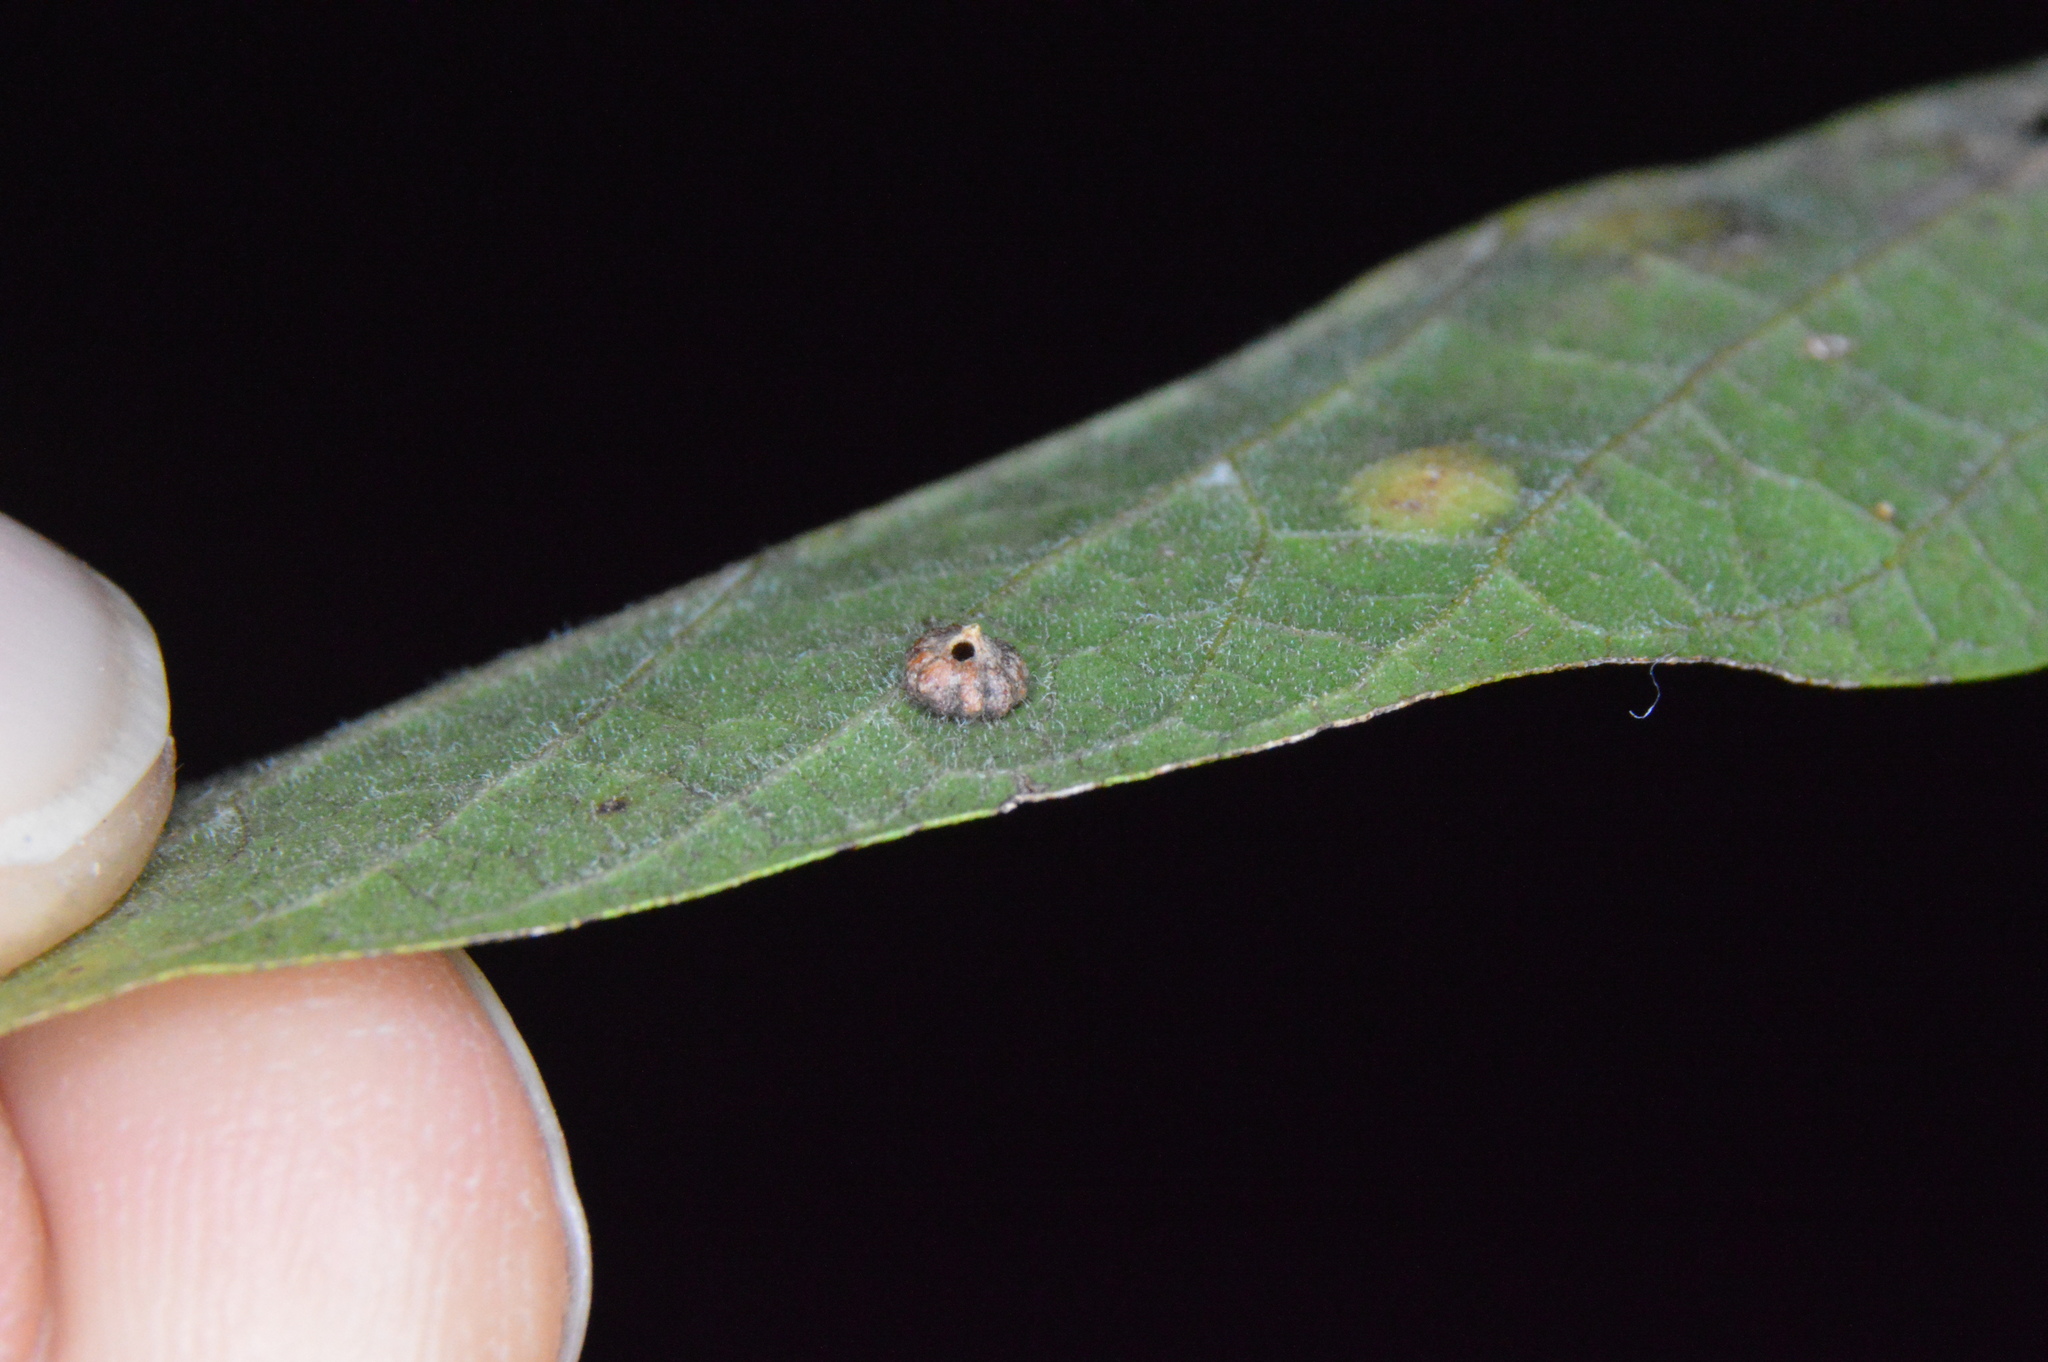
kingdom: Animalia
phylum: Arthropoda
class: Insecta
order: Diptera
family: Cecidomyiidae
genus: Celticecis
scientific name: Celticecis capsularis
